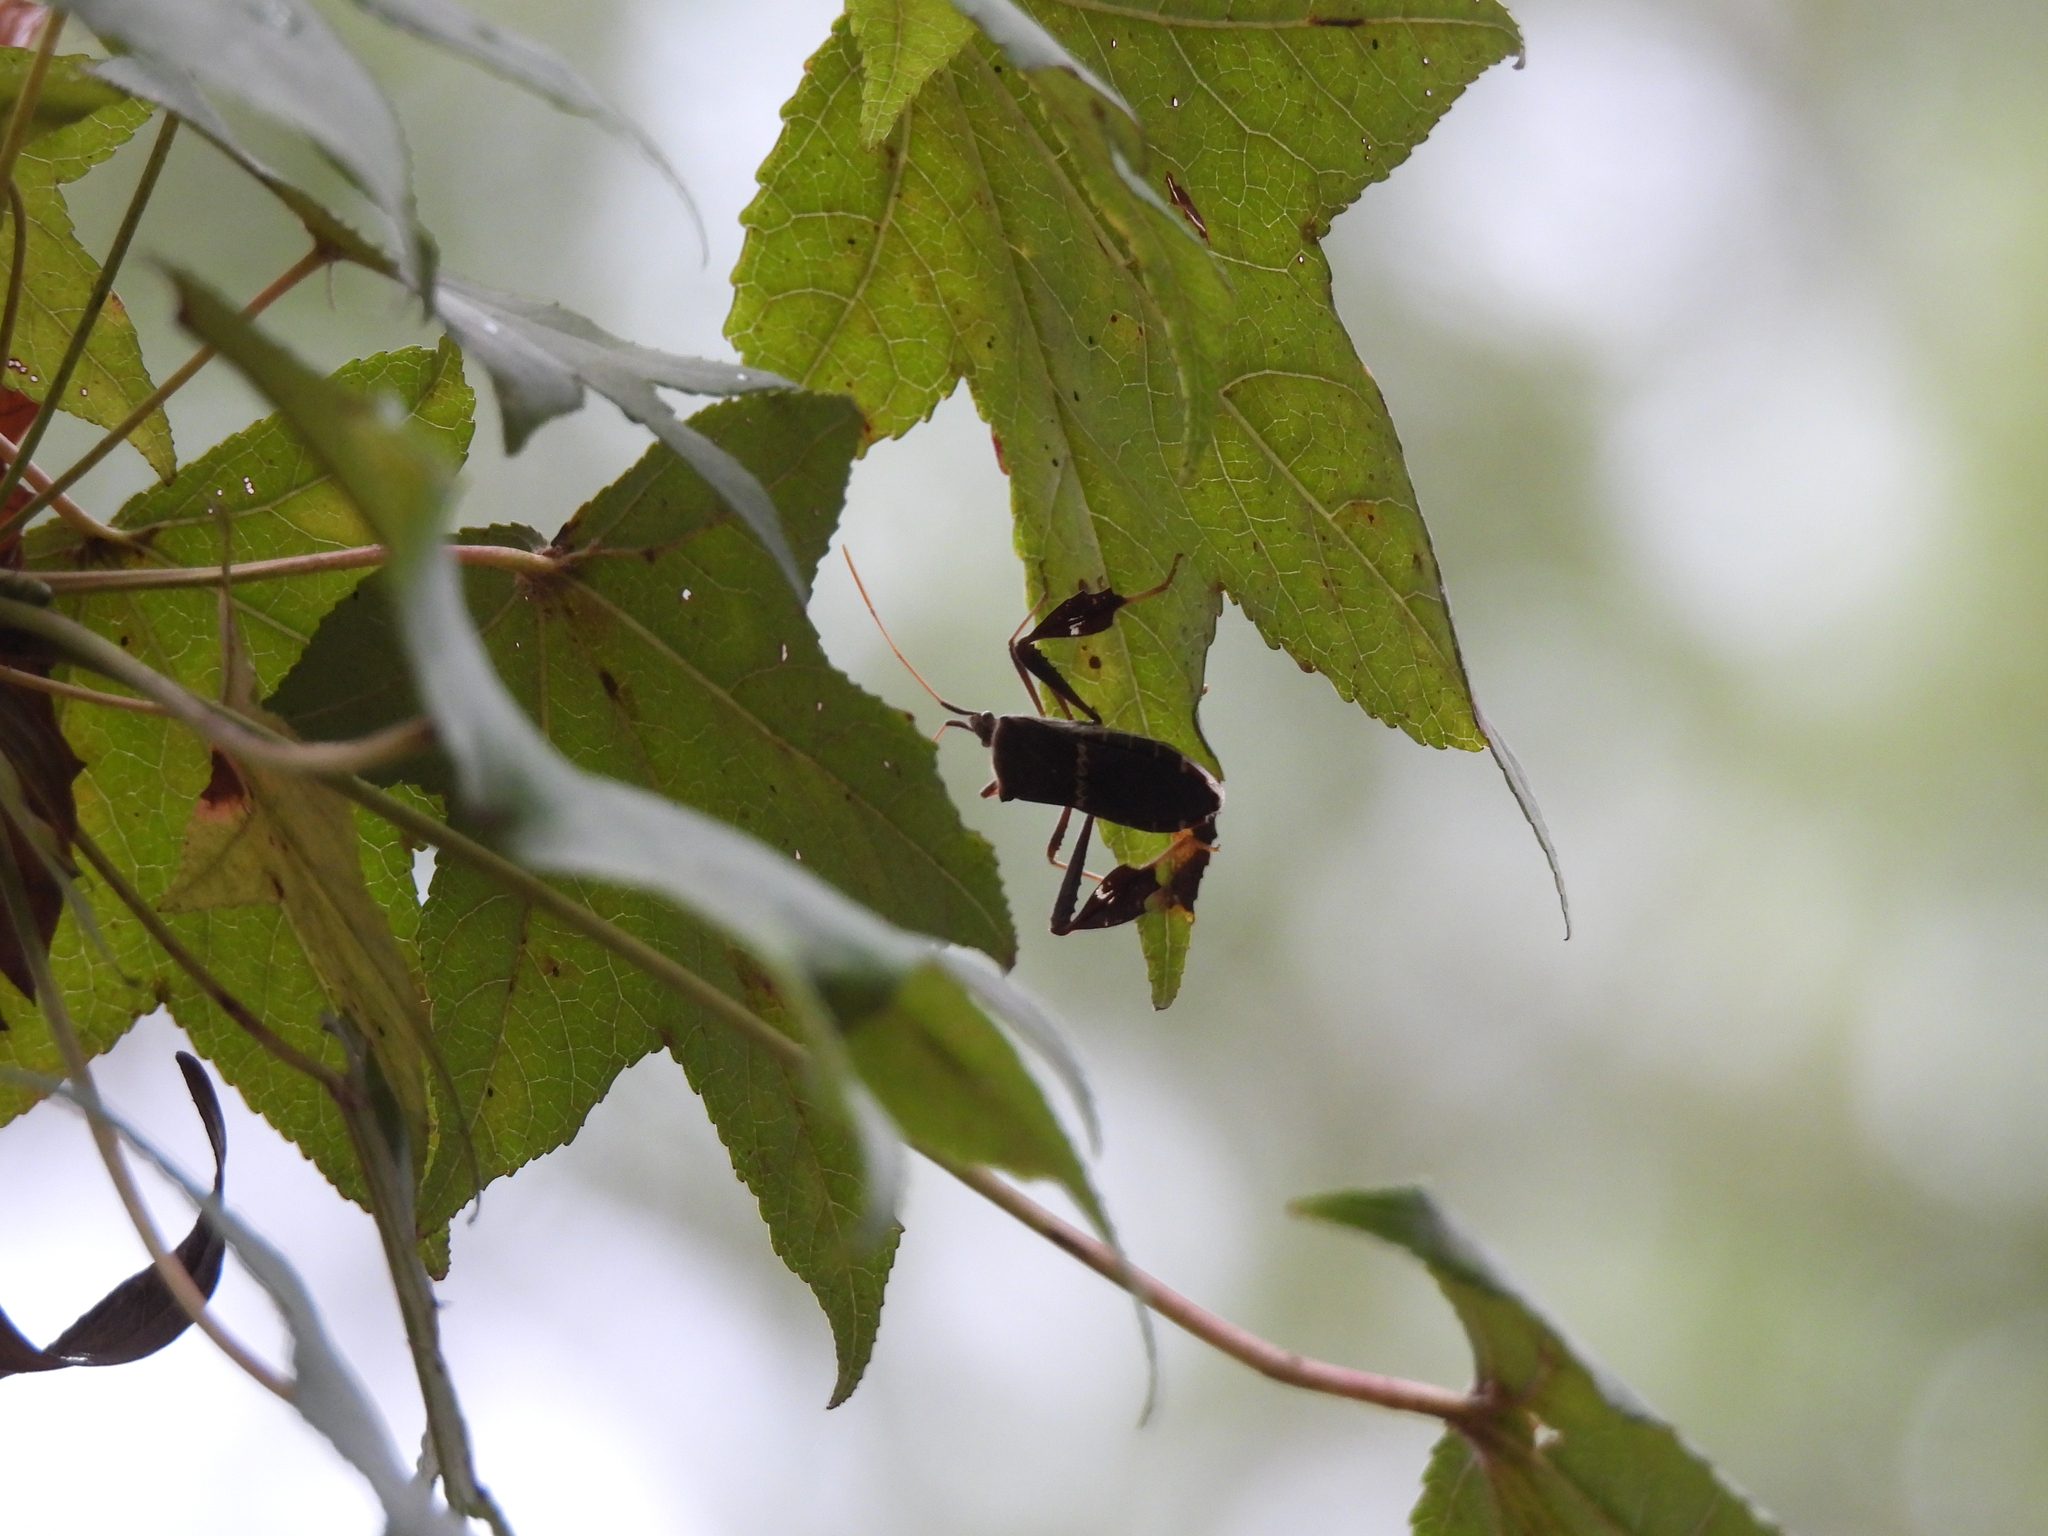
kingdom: Animalia
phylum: Arthropoda
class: Insecta
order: Hemiptera
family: Coreidae
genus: Leptoglossus
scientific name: Leptoglossus zonatus
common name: Large-legged bug
